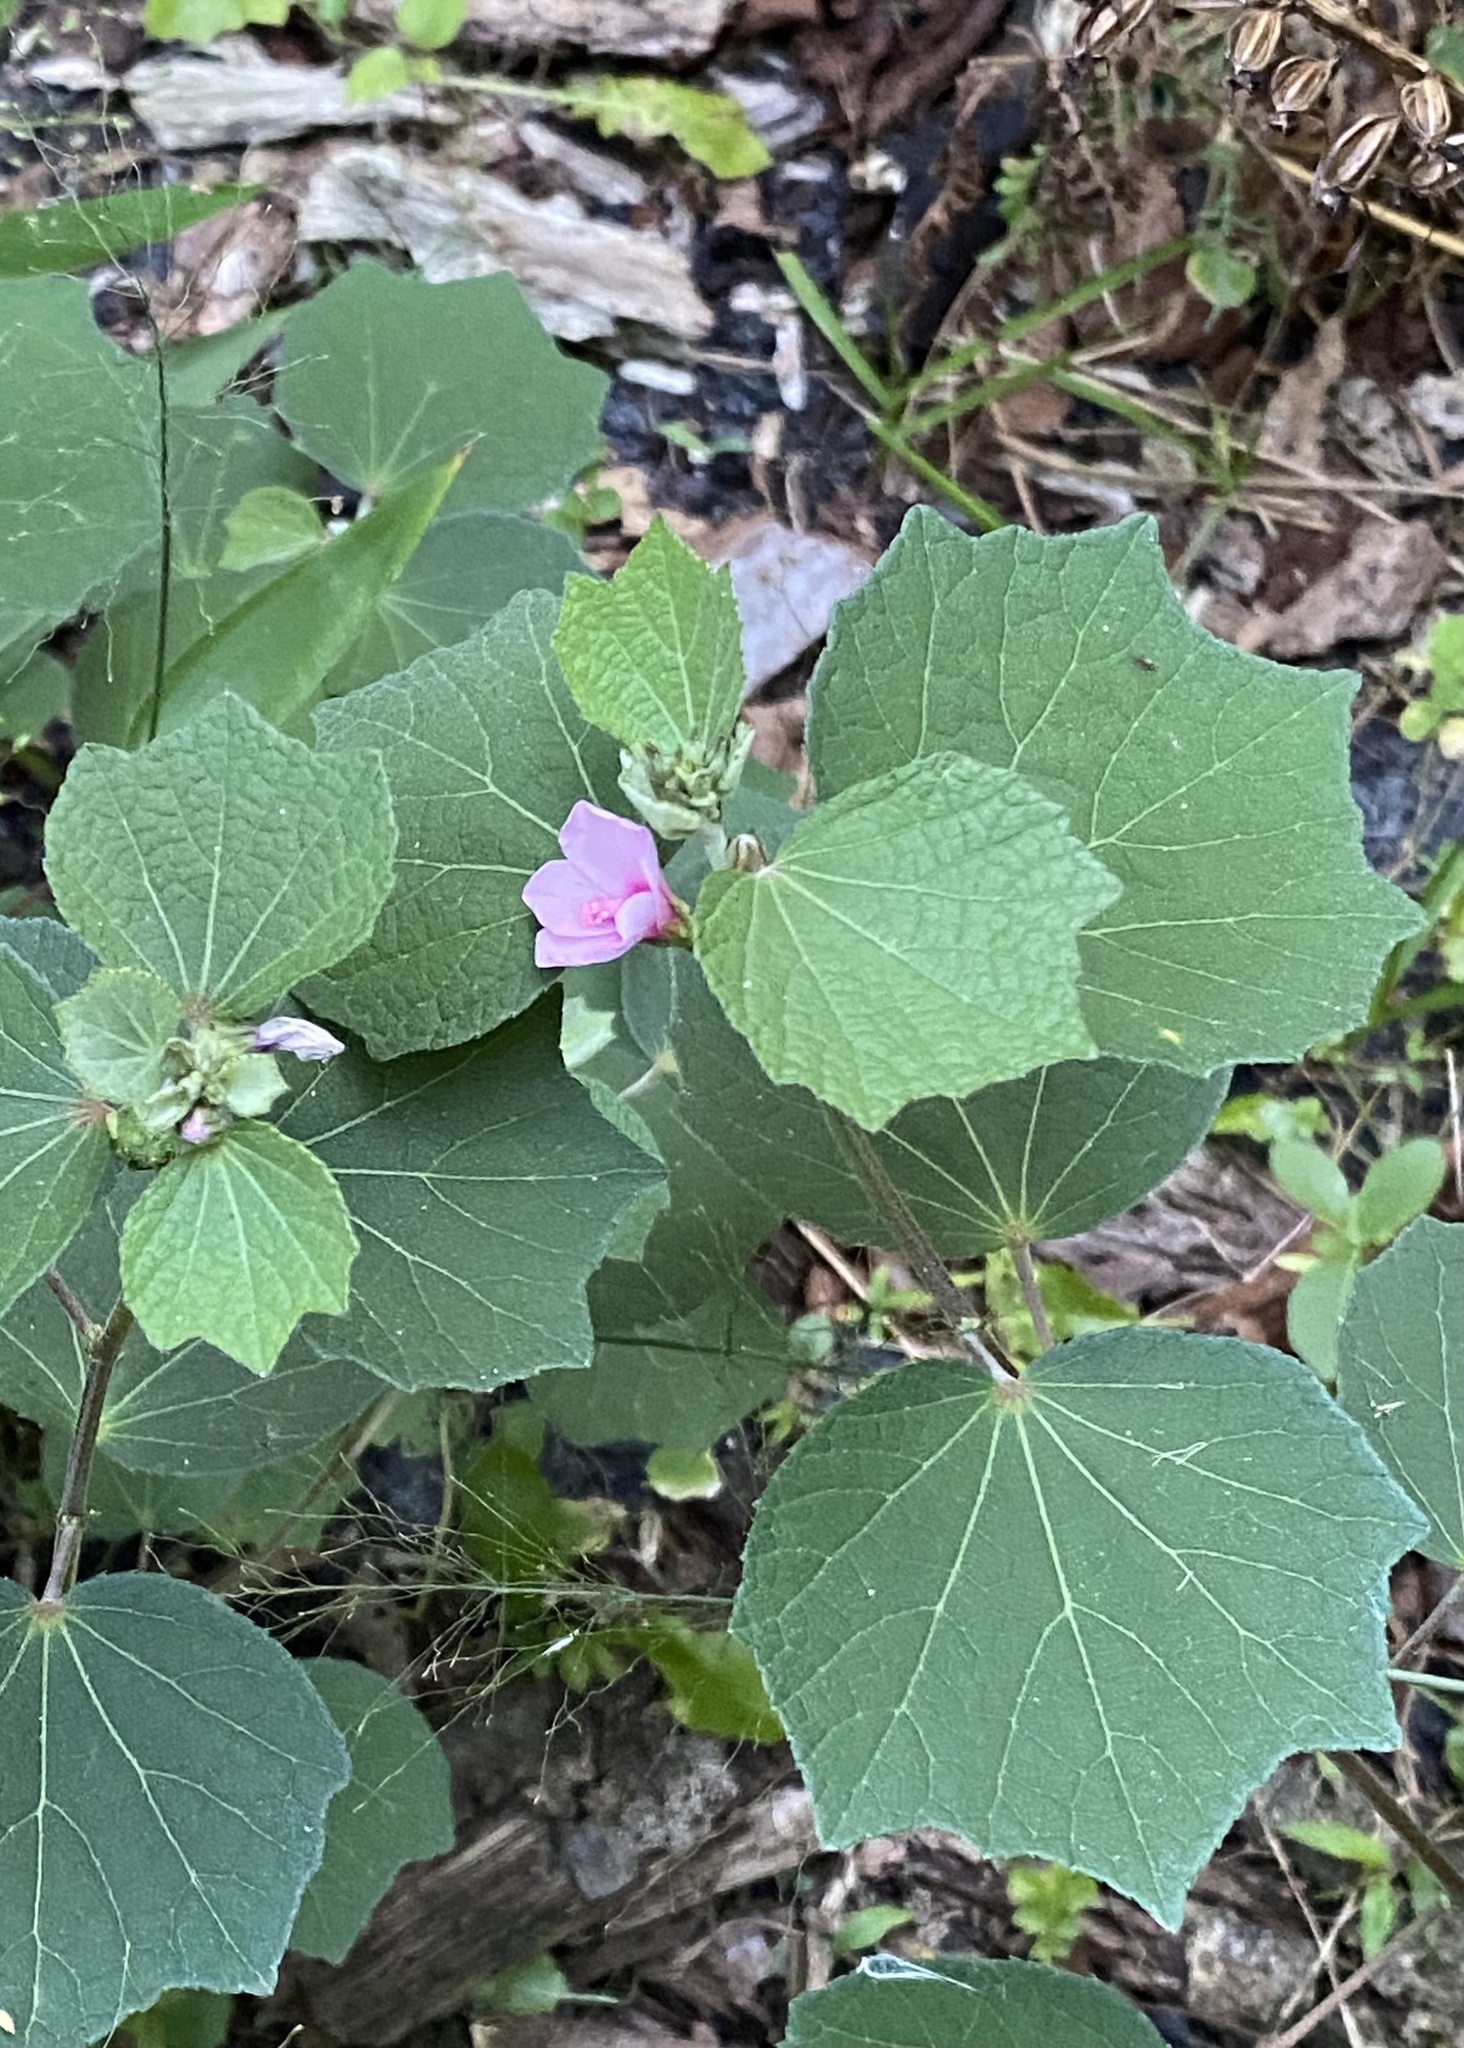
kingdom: Plantae
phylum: Tracheophyta
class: Magnoliopsida
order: Malvales
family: Malvaceae
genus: Urena
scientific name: Urena lobata
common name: Caesarweed
